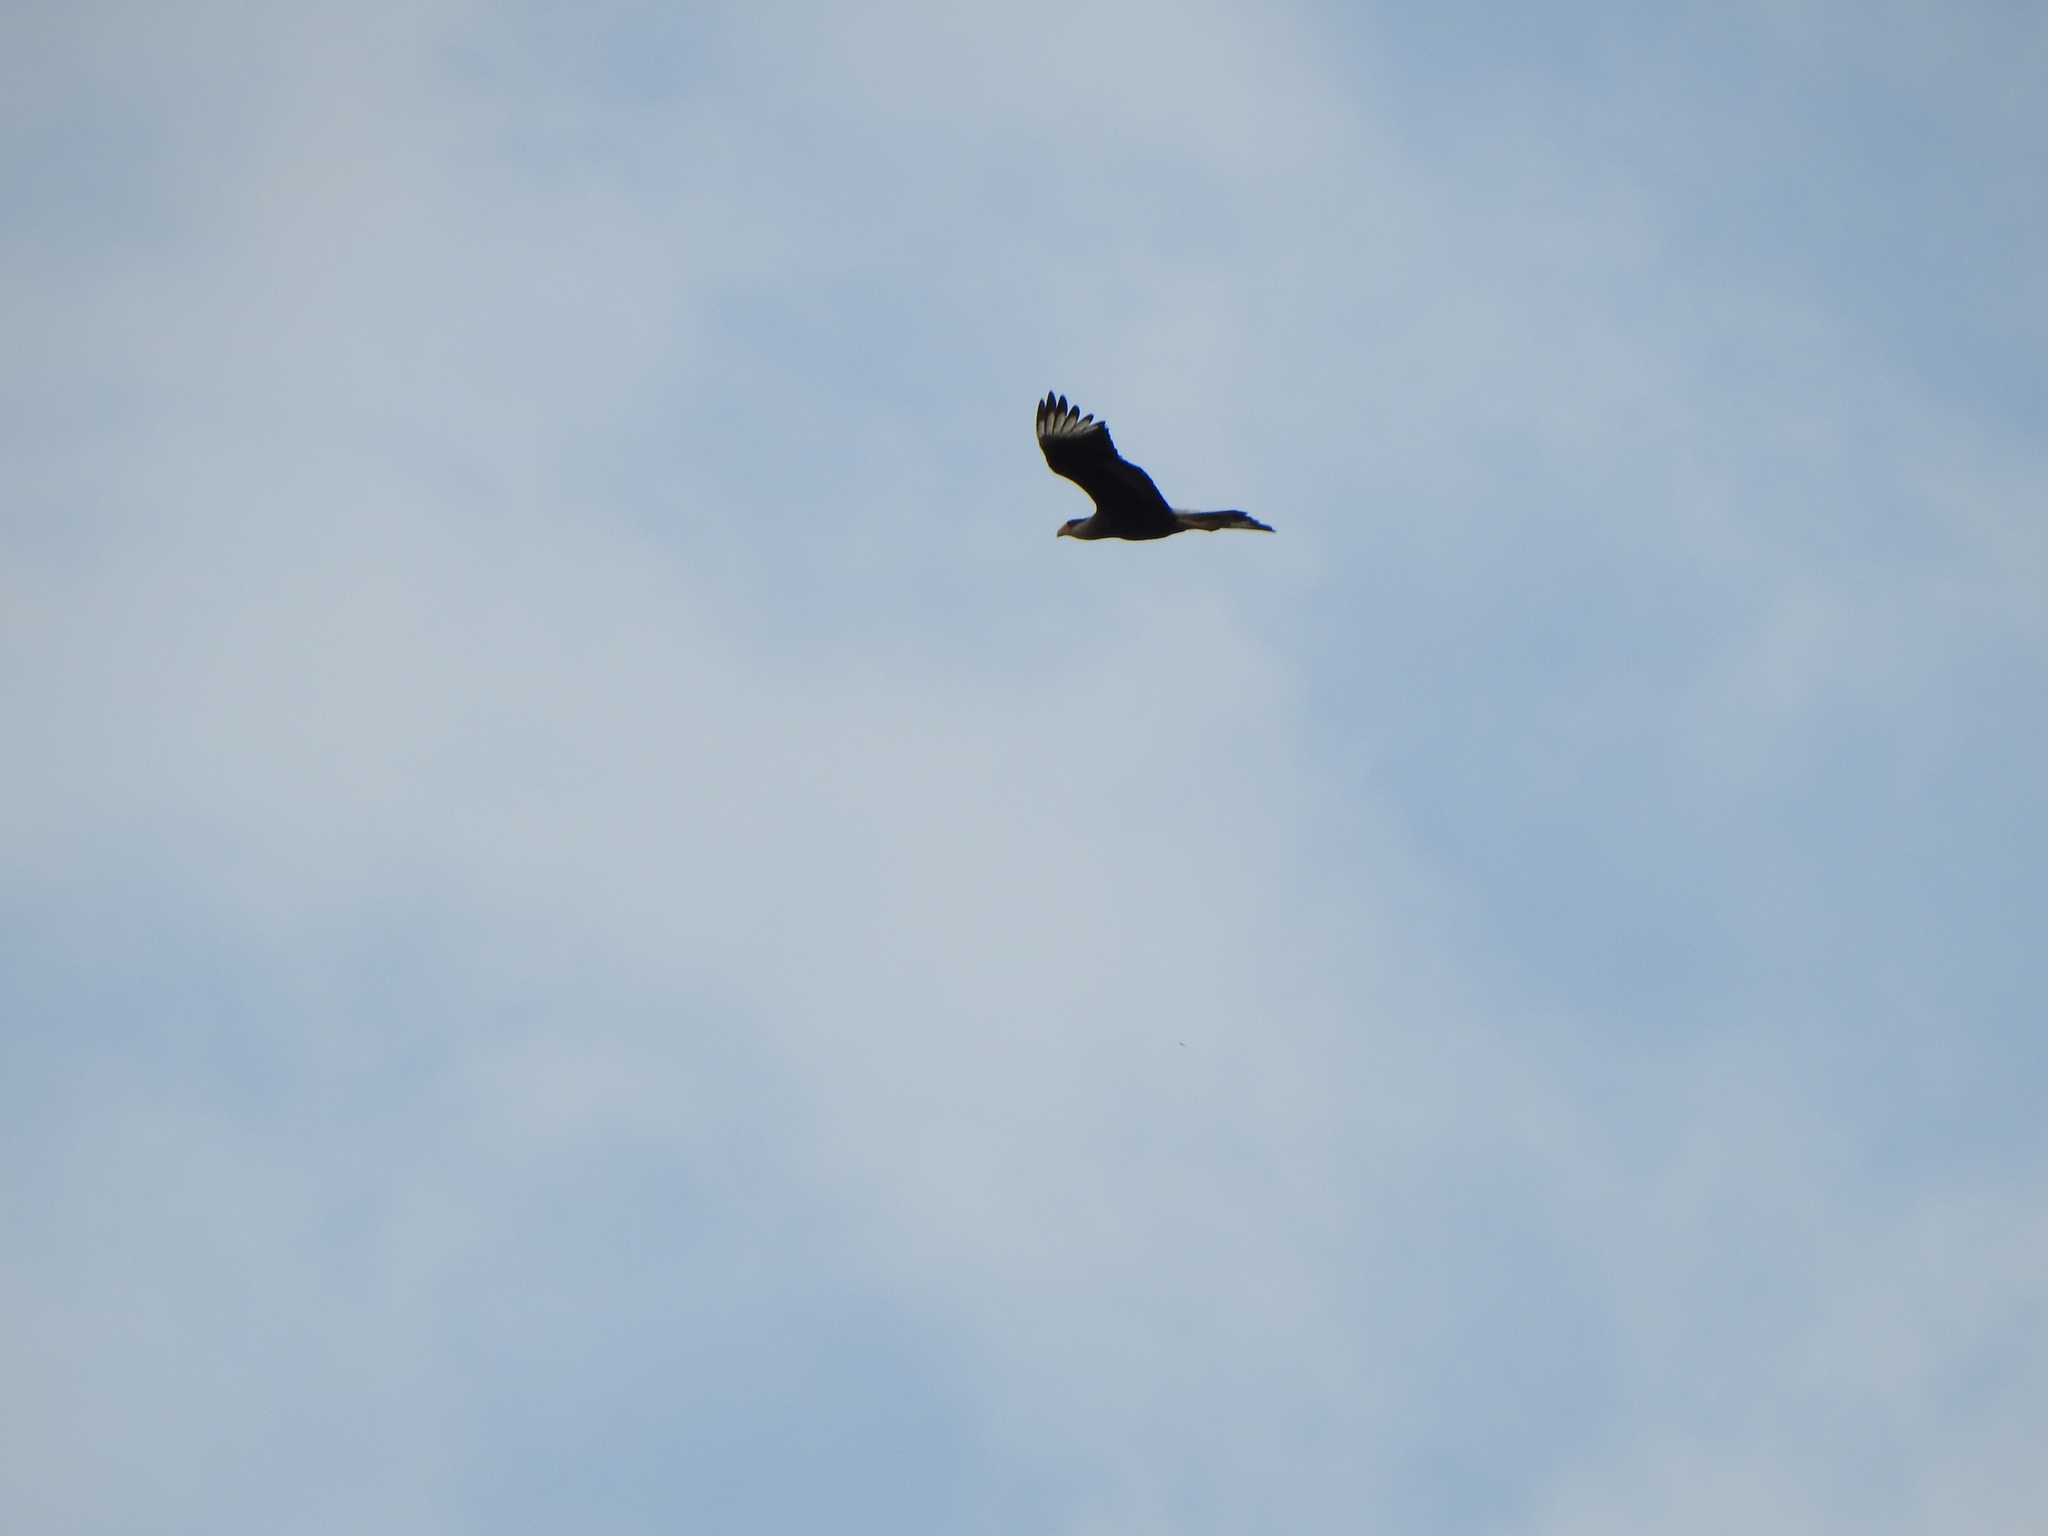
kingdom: Animalia
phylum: Chordata
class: Aves
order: Falconiformes
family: Falconidae
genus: Caracara
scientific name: Caracara plancus
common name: Southern caracara
